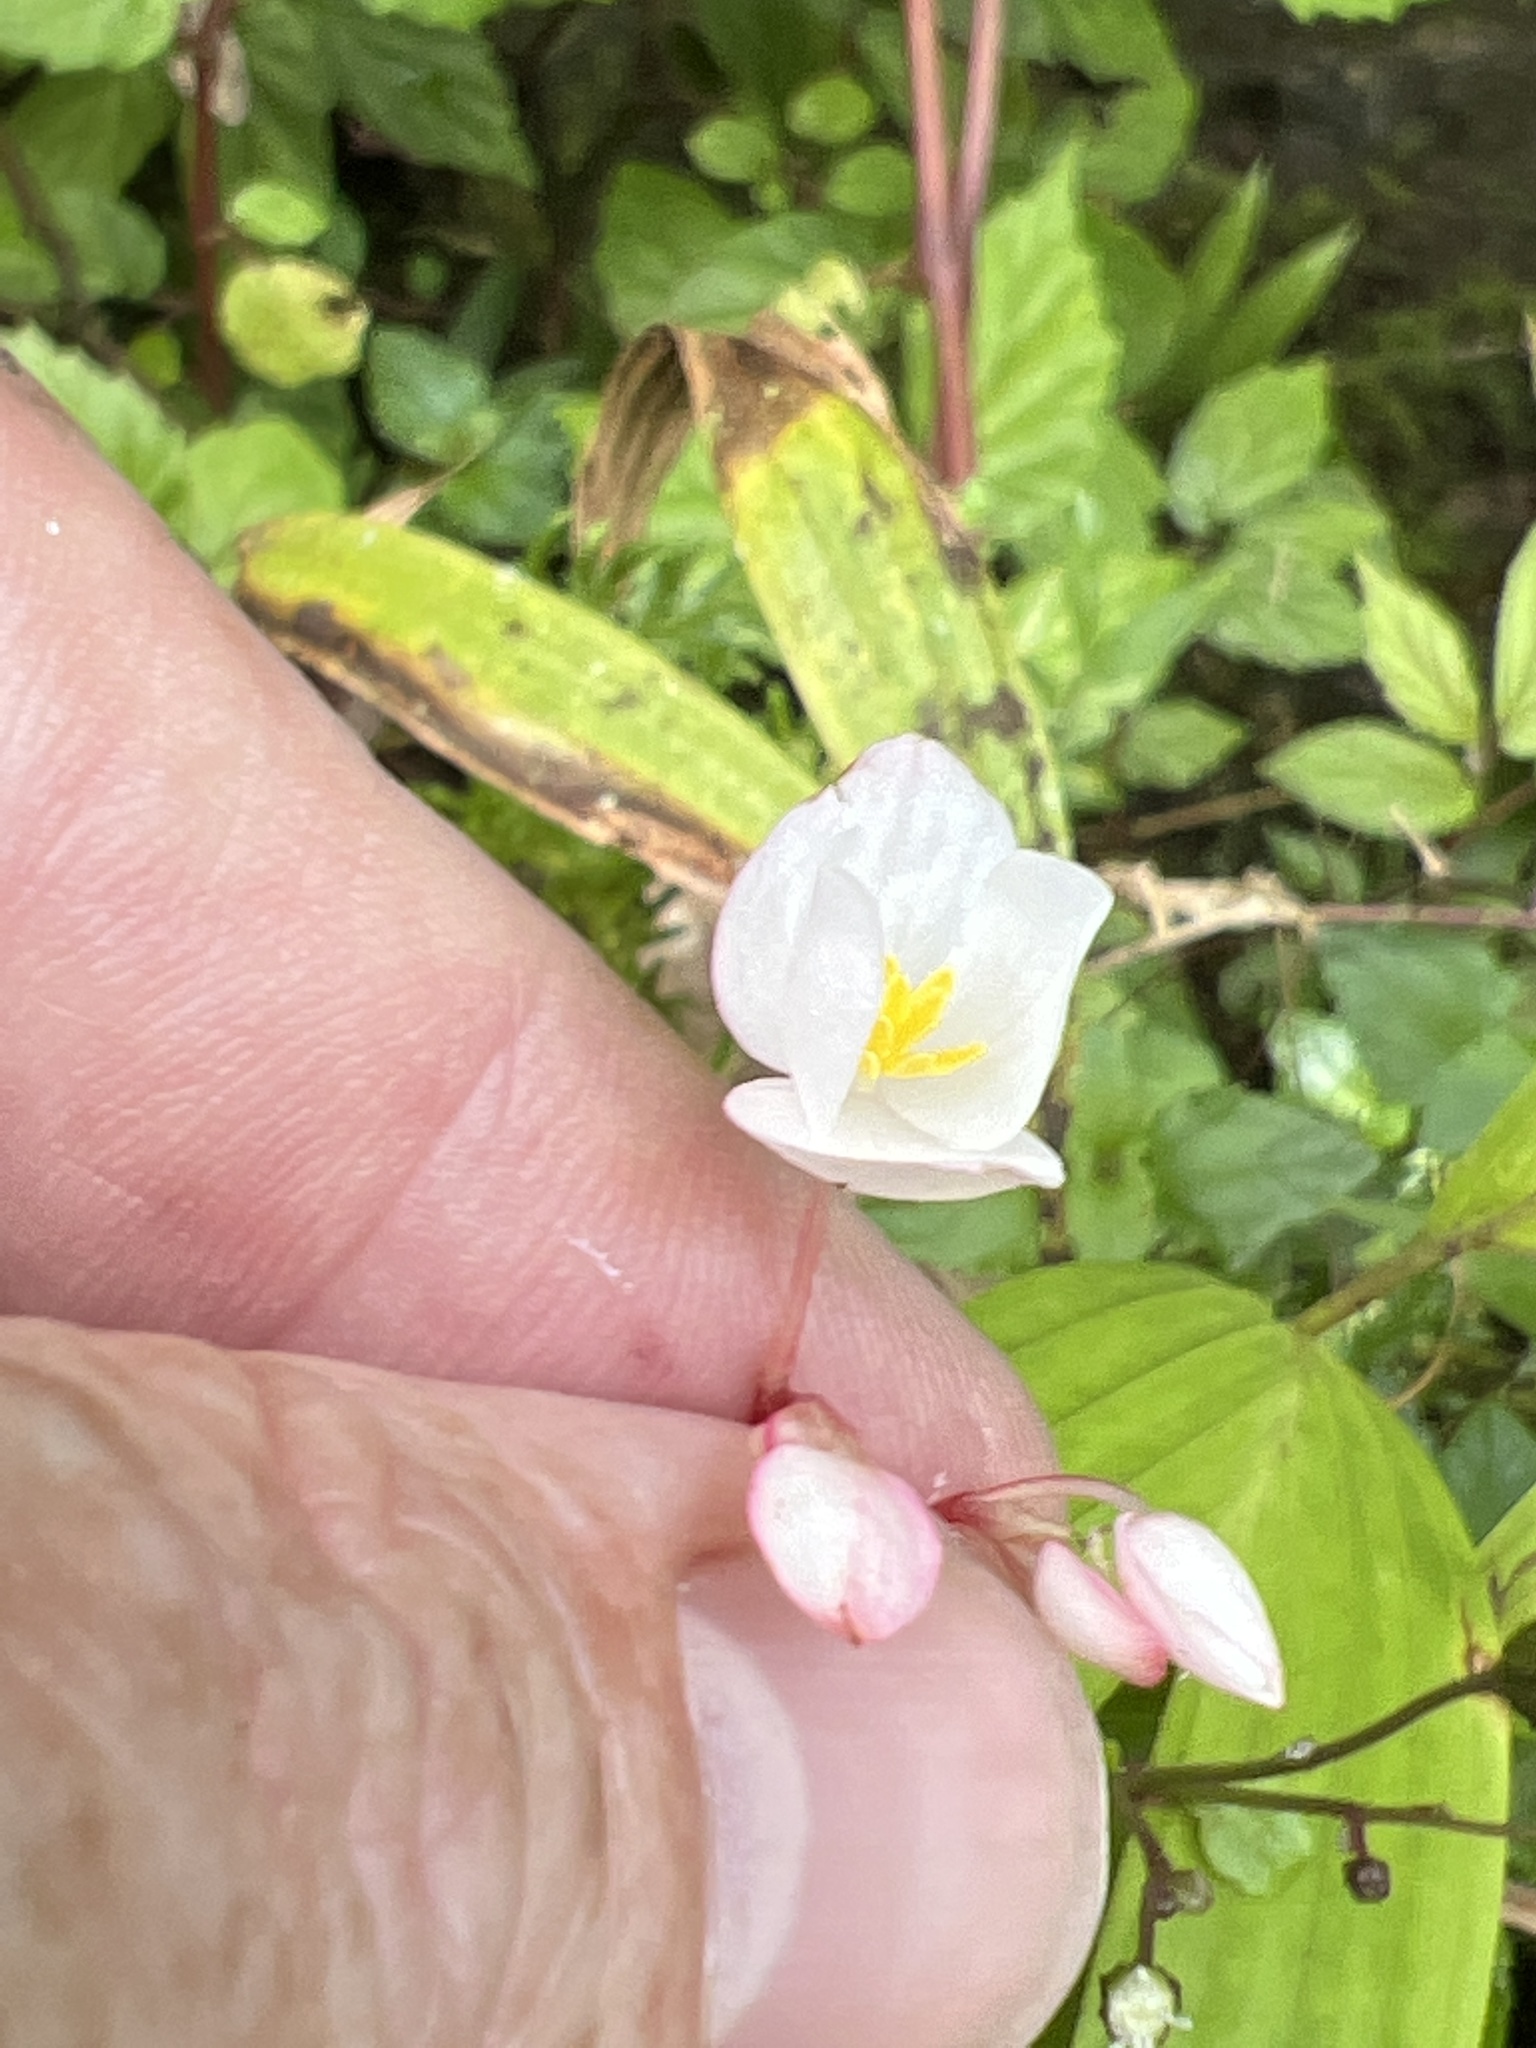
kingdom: Plantae
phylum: Tracheophyta
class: Magnoliopsida
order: Cucurbitales
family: Begoniaceae
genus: Begonia
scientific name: Begonia decandra
